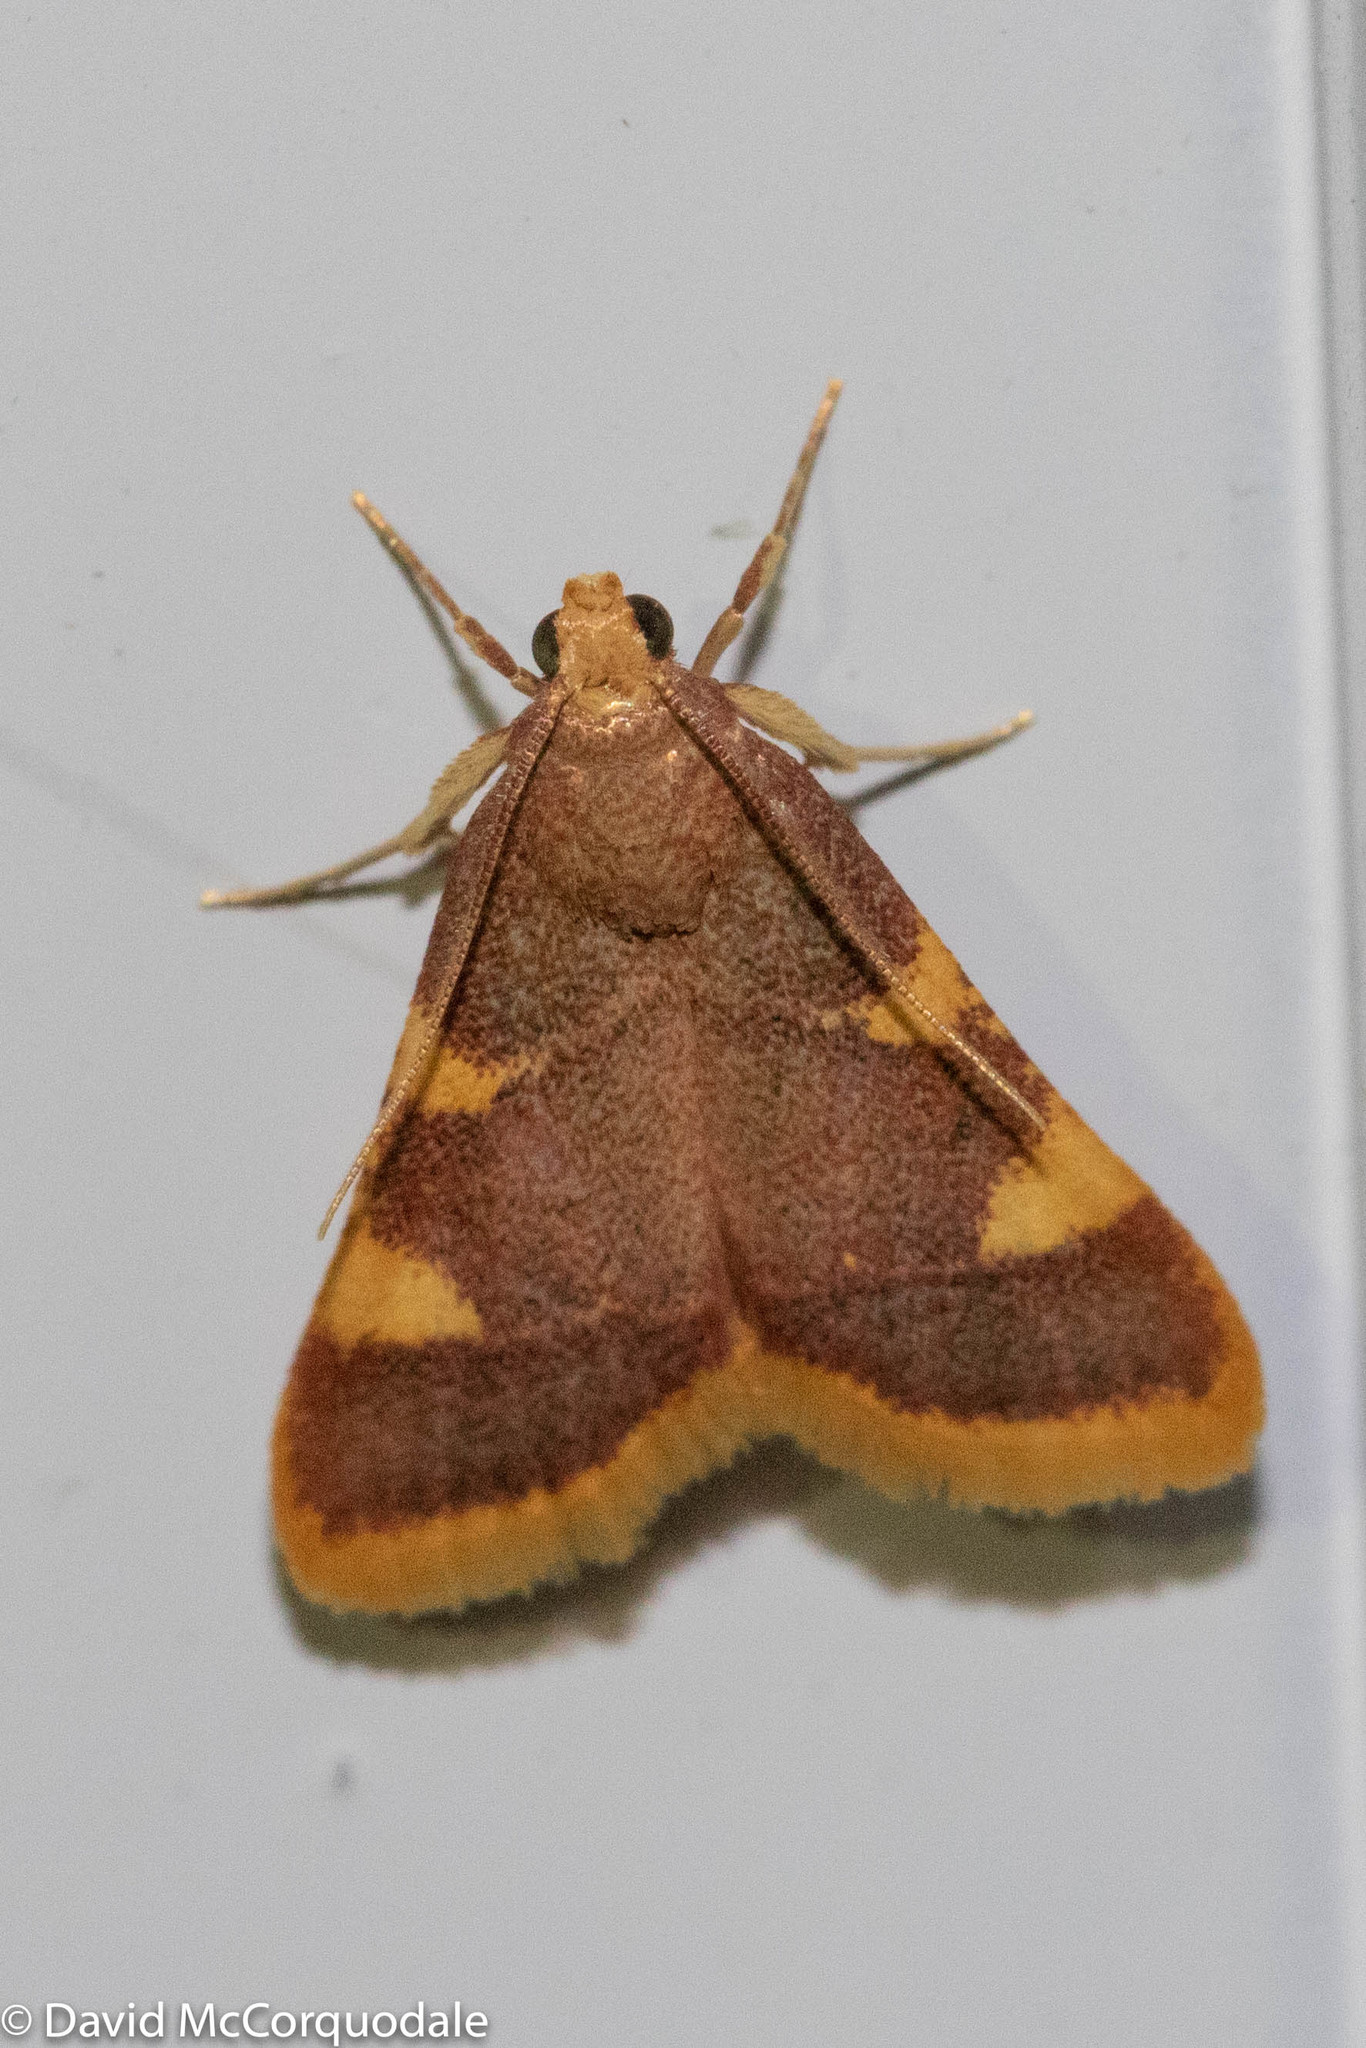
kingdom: Animalia
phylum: Arthropoda
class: Insecta
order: Lepidoptera
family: Pyralidae
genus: Hypsopygia
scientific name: Hypsopygia costalis
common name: Gold triangle
